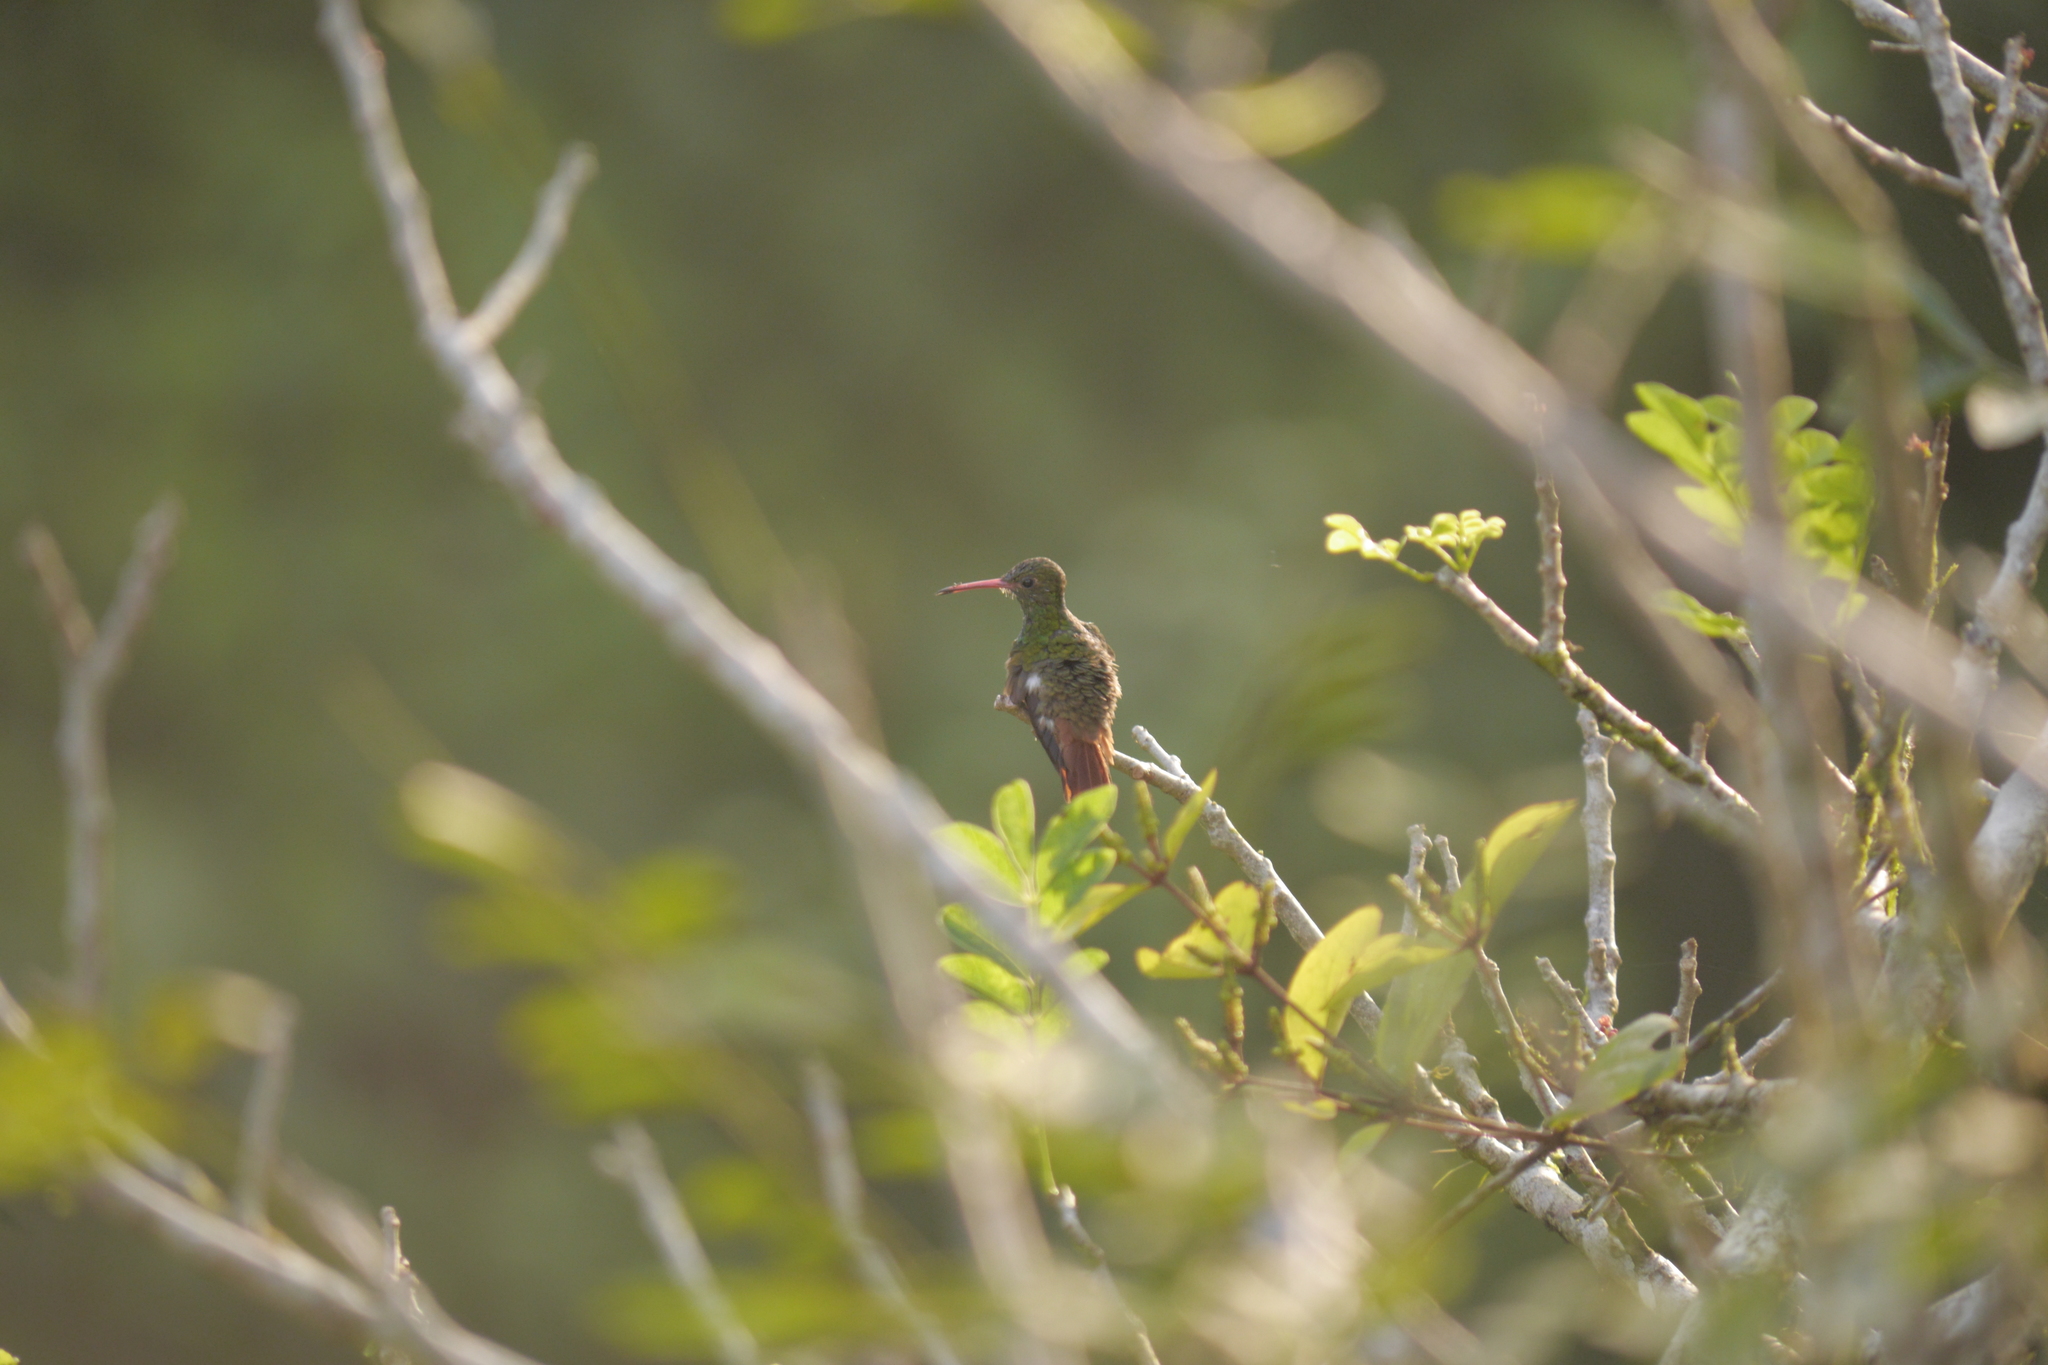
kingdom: Animalia
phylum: Chordata
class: Aves
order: Apodiformes
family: Trochilidae
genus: Amazilia
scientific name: Amazilia tzacatl
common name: Rufous-tailed hummingbird
